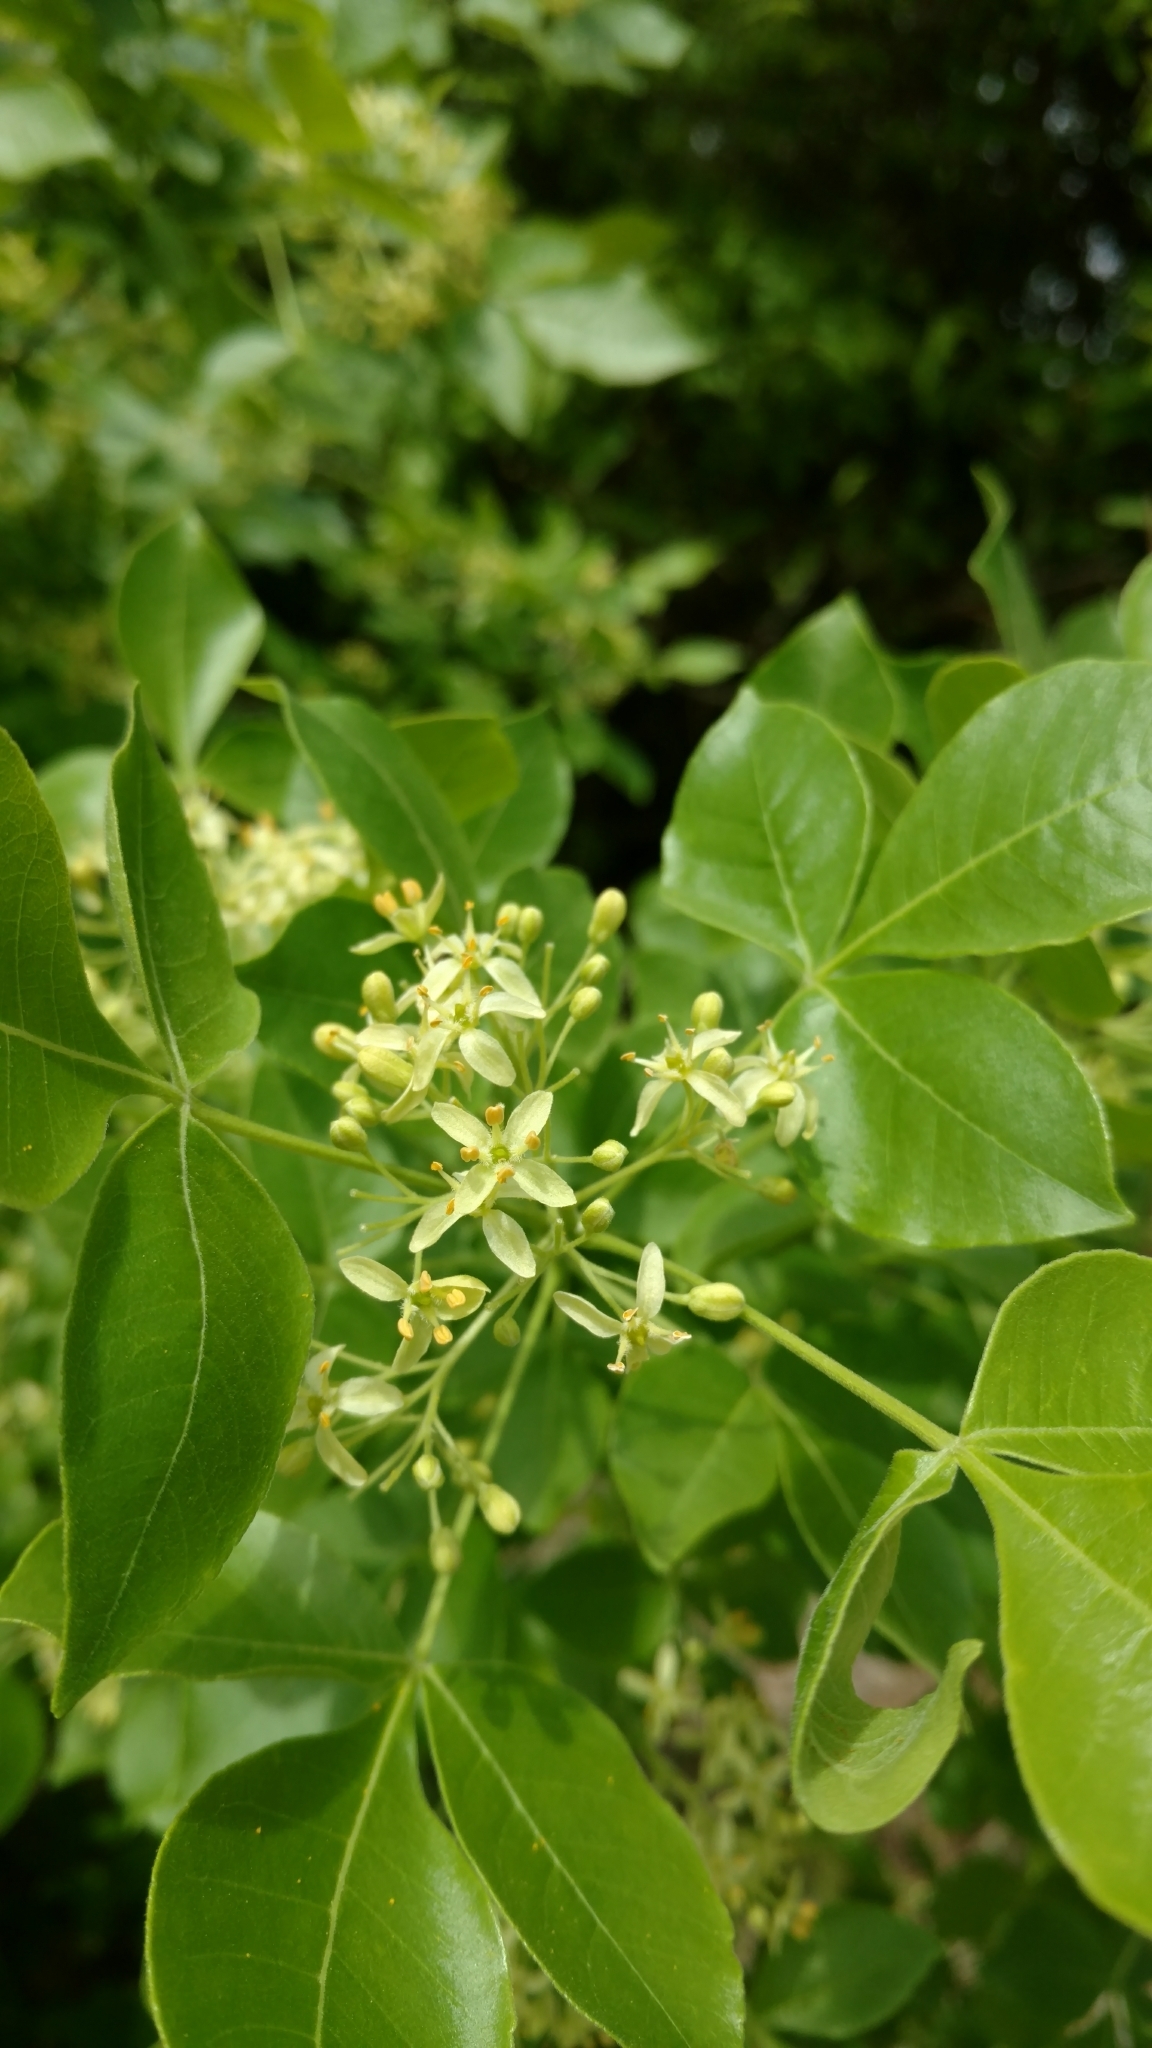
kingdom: Plantae
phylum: Tracheophyta
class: Magnoliopsida
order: Sapindales
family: Rutaceae
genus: Ptelea
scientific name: Ptelea trifoliata
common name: Common hop-tree
